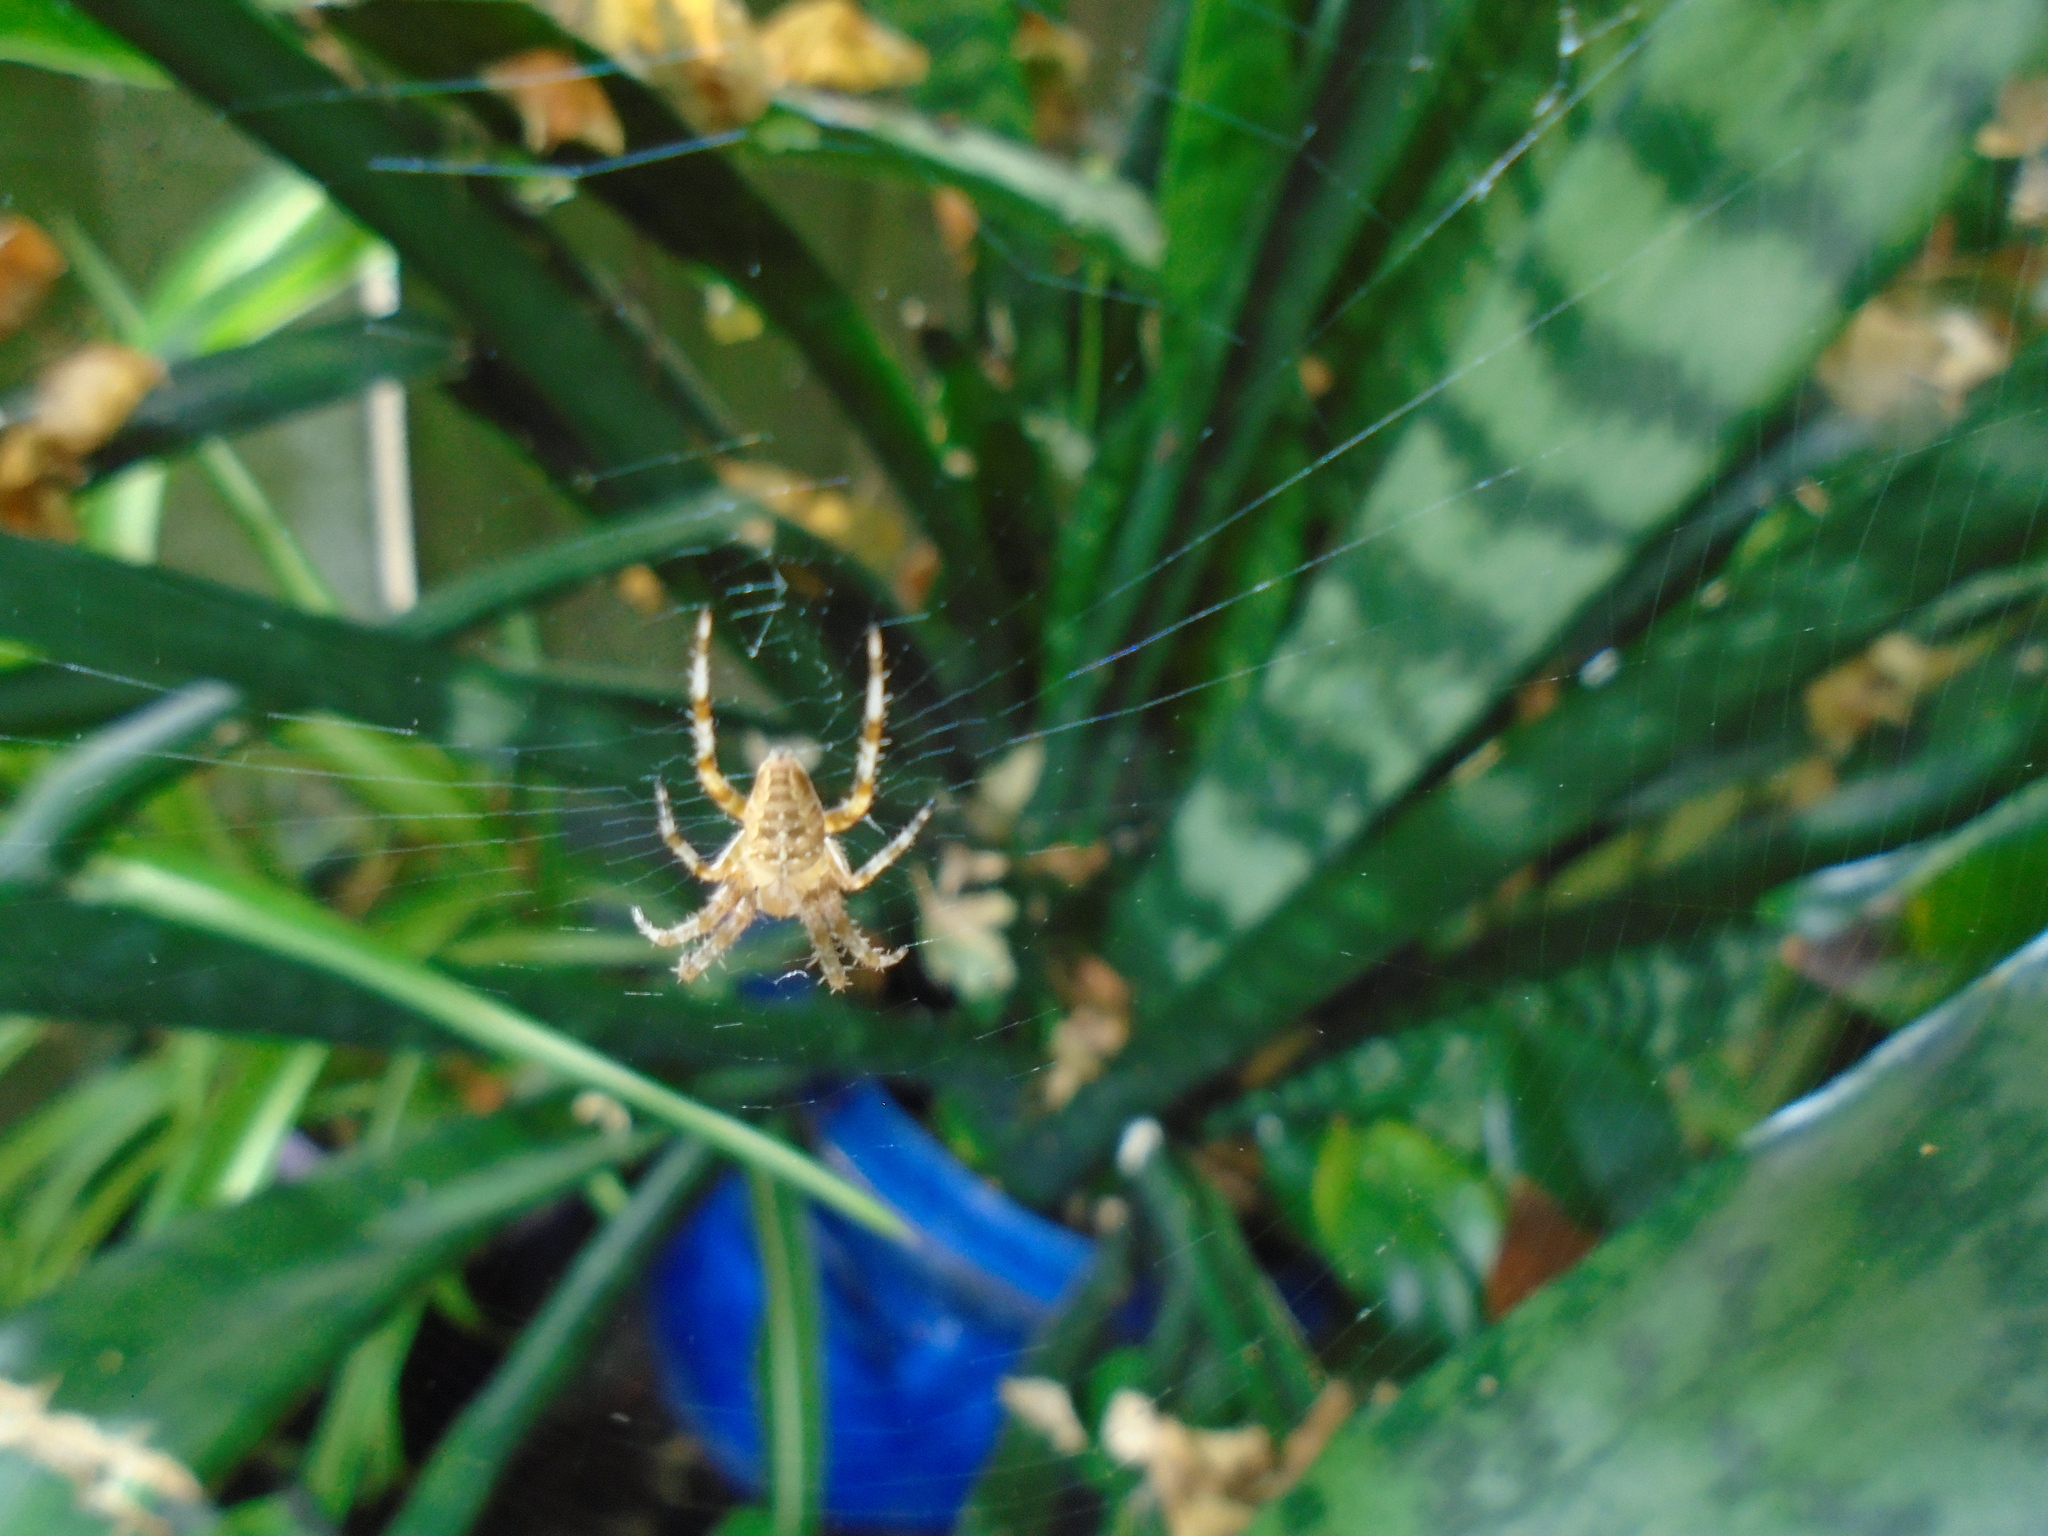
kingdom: Animalia
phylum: Arthropoda
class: Arachnida
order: Araneae
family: Araneidae
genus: Araneus
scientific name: Araneus diadematus
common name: Cross orbweaver
